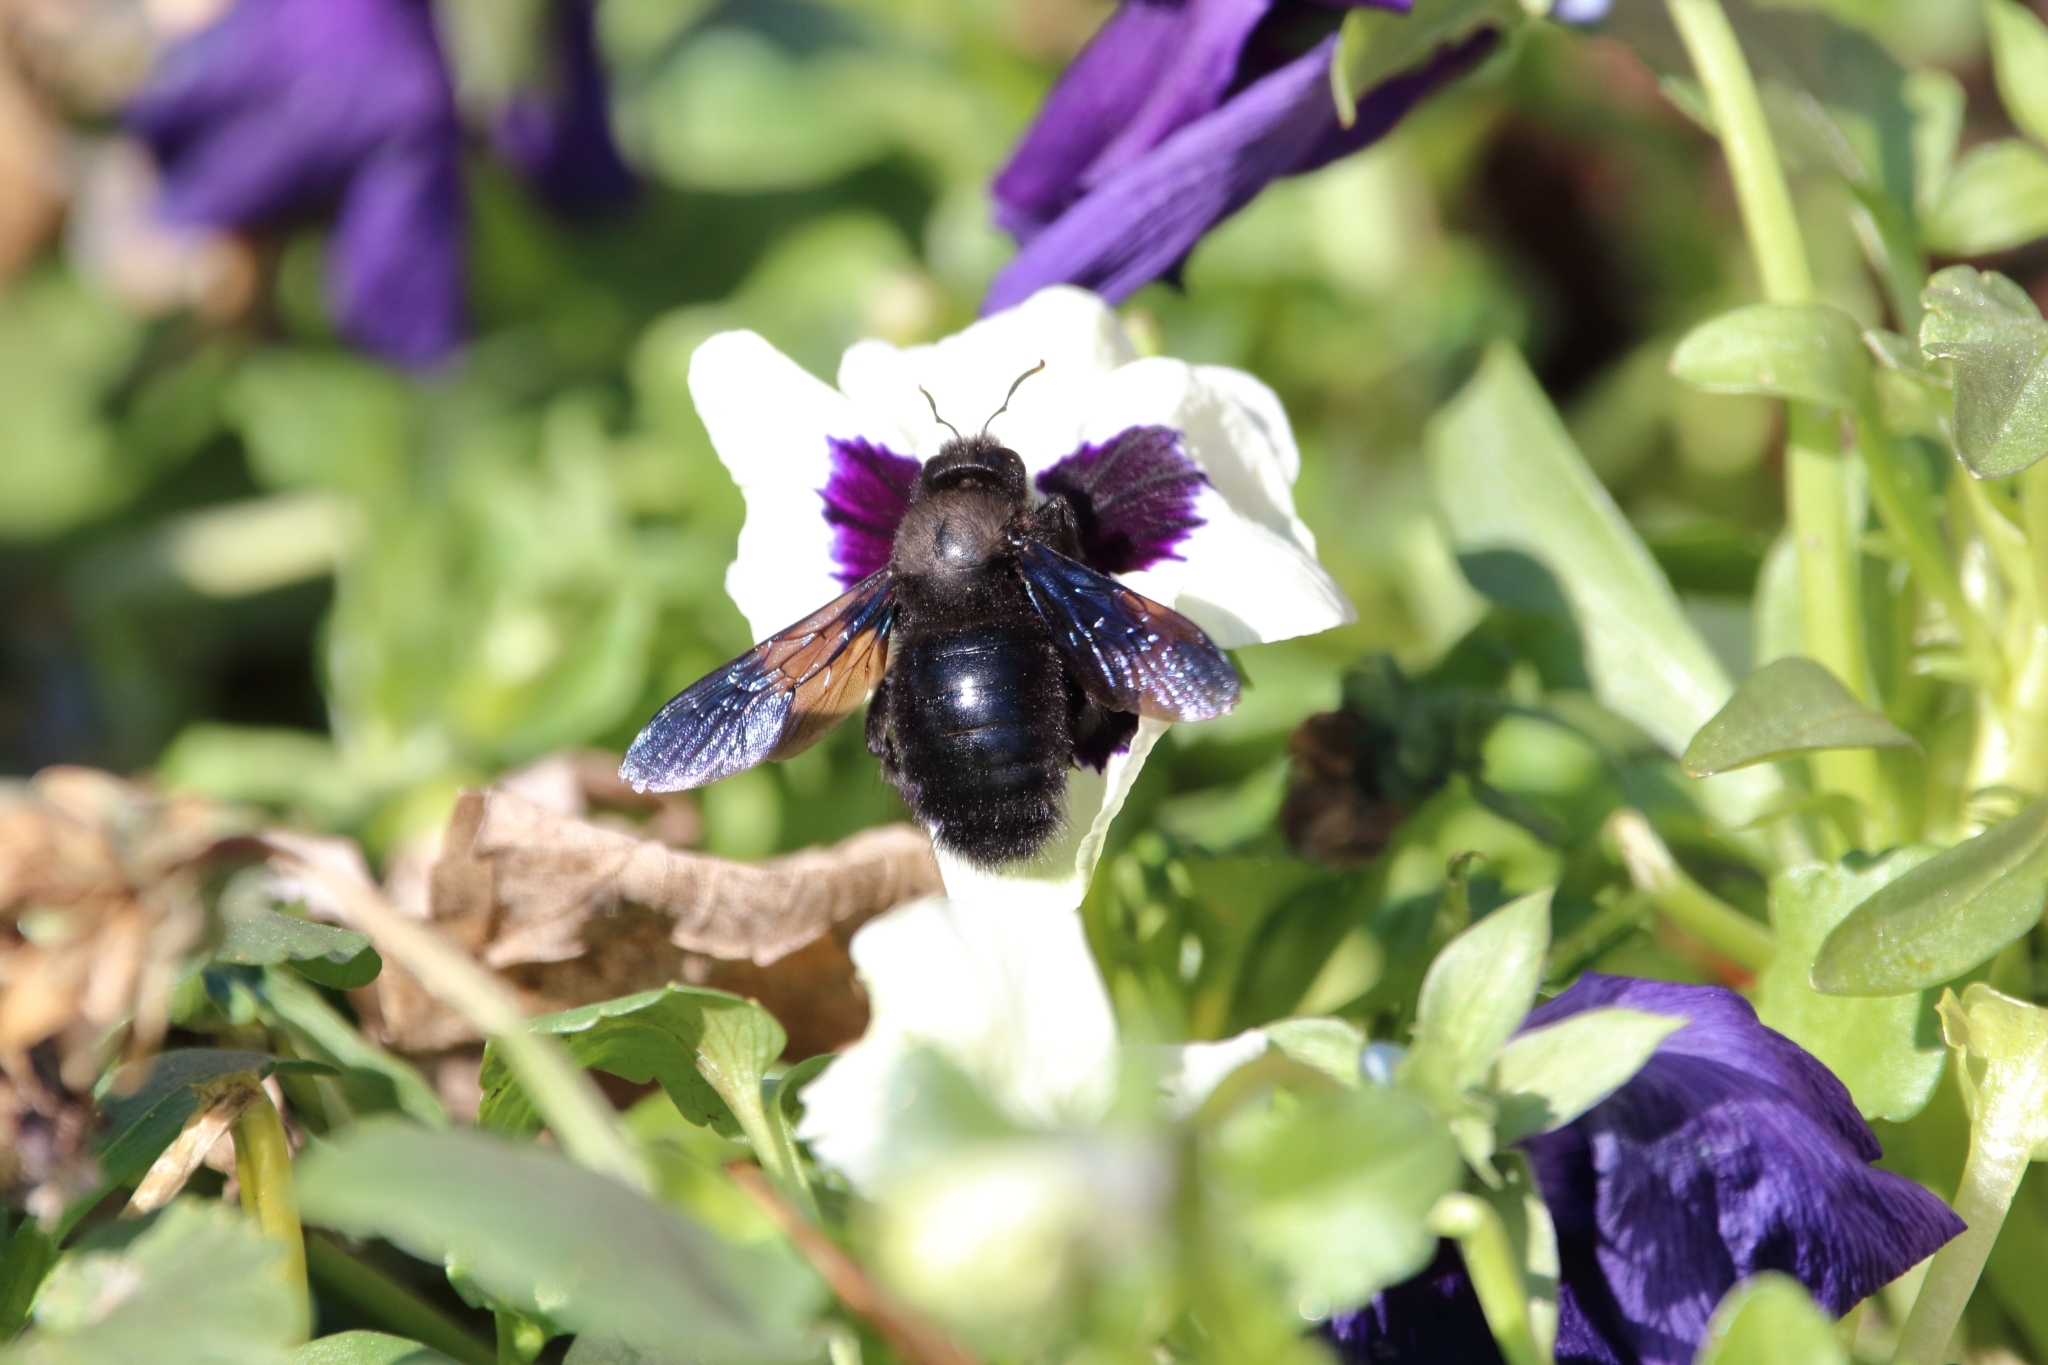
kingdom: Animalia
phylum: Arthropoda
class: Insecta
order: Hymenoptera
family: Apidae
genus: Xylocopa
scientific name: Xylocopa violacea
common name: Violet carpenter bee
